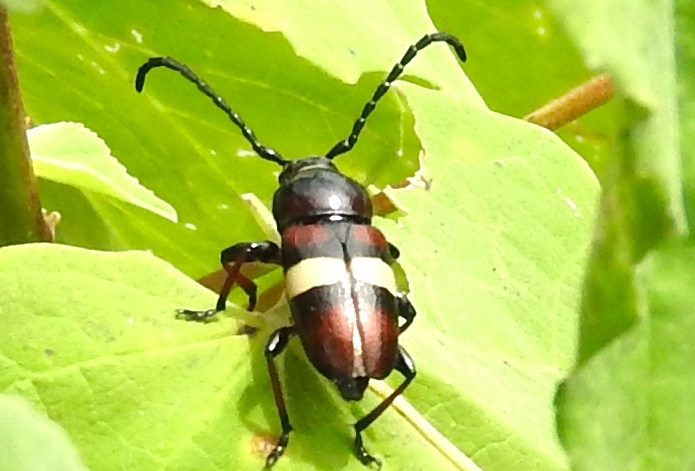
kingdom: Animalia
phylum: Arthropoda
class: Insecta
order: Coleoptera
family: Cerambycidae
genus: Lissonotus
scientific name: Lissonotus flavocinctus
